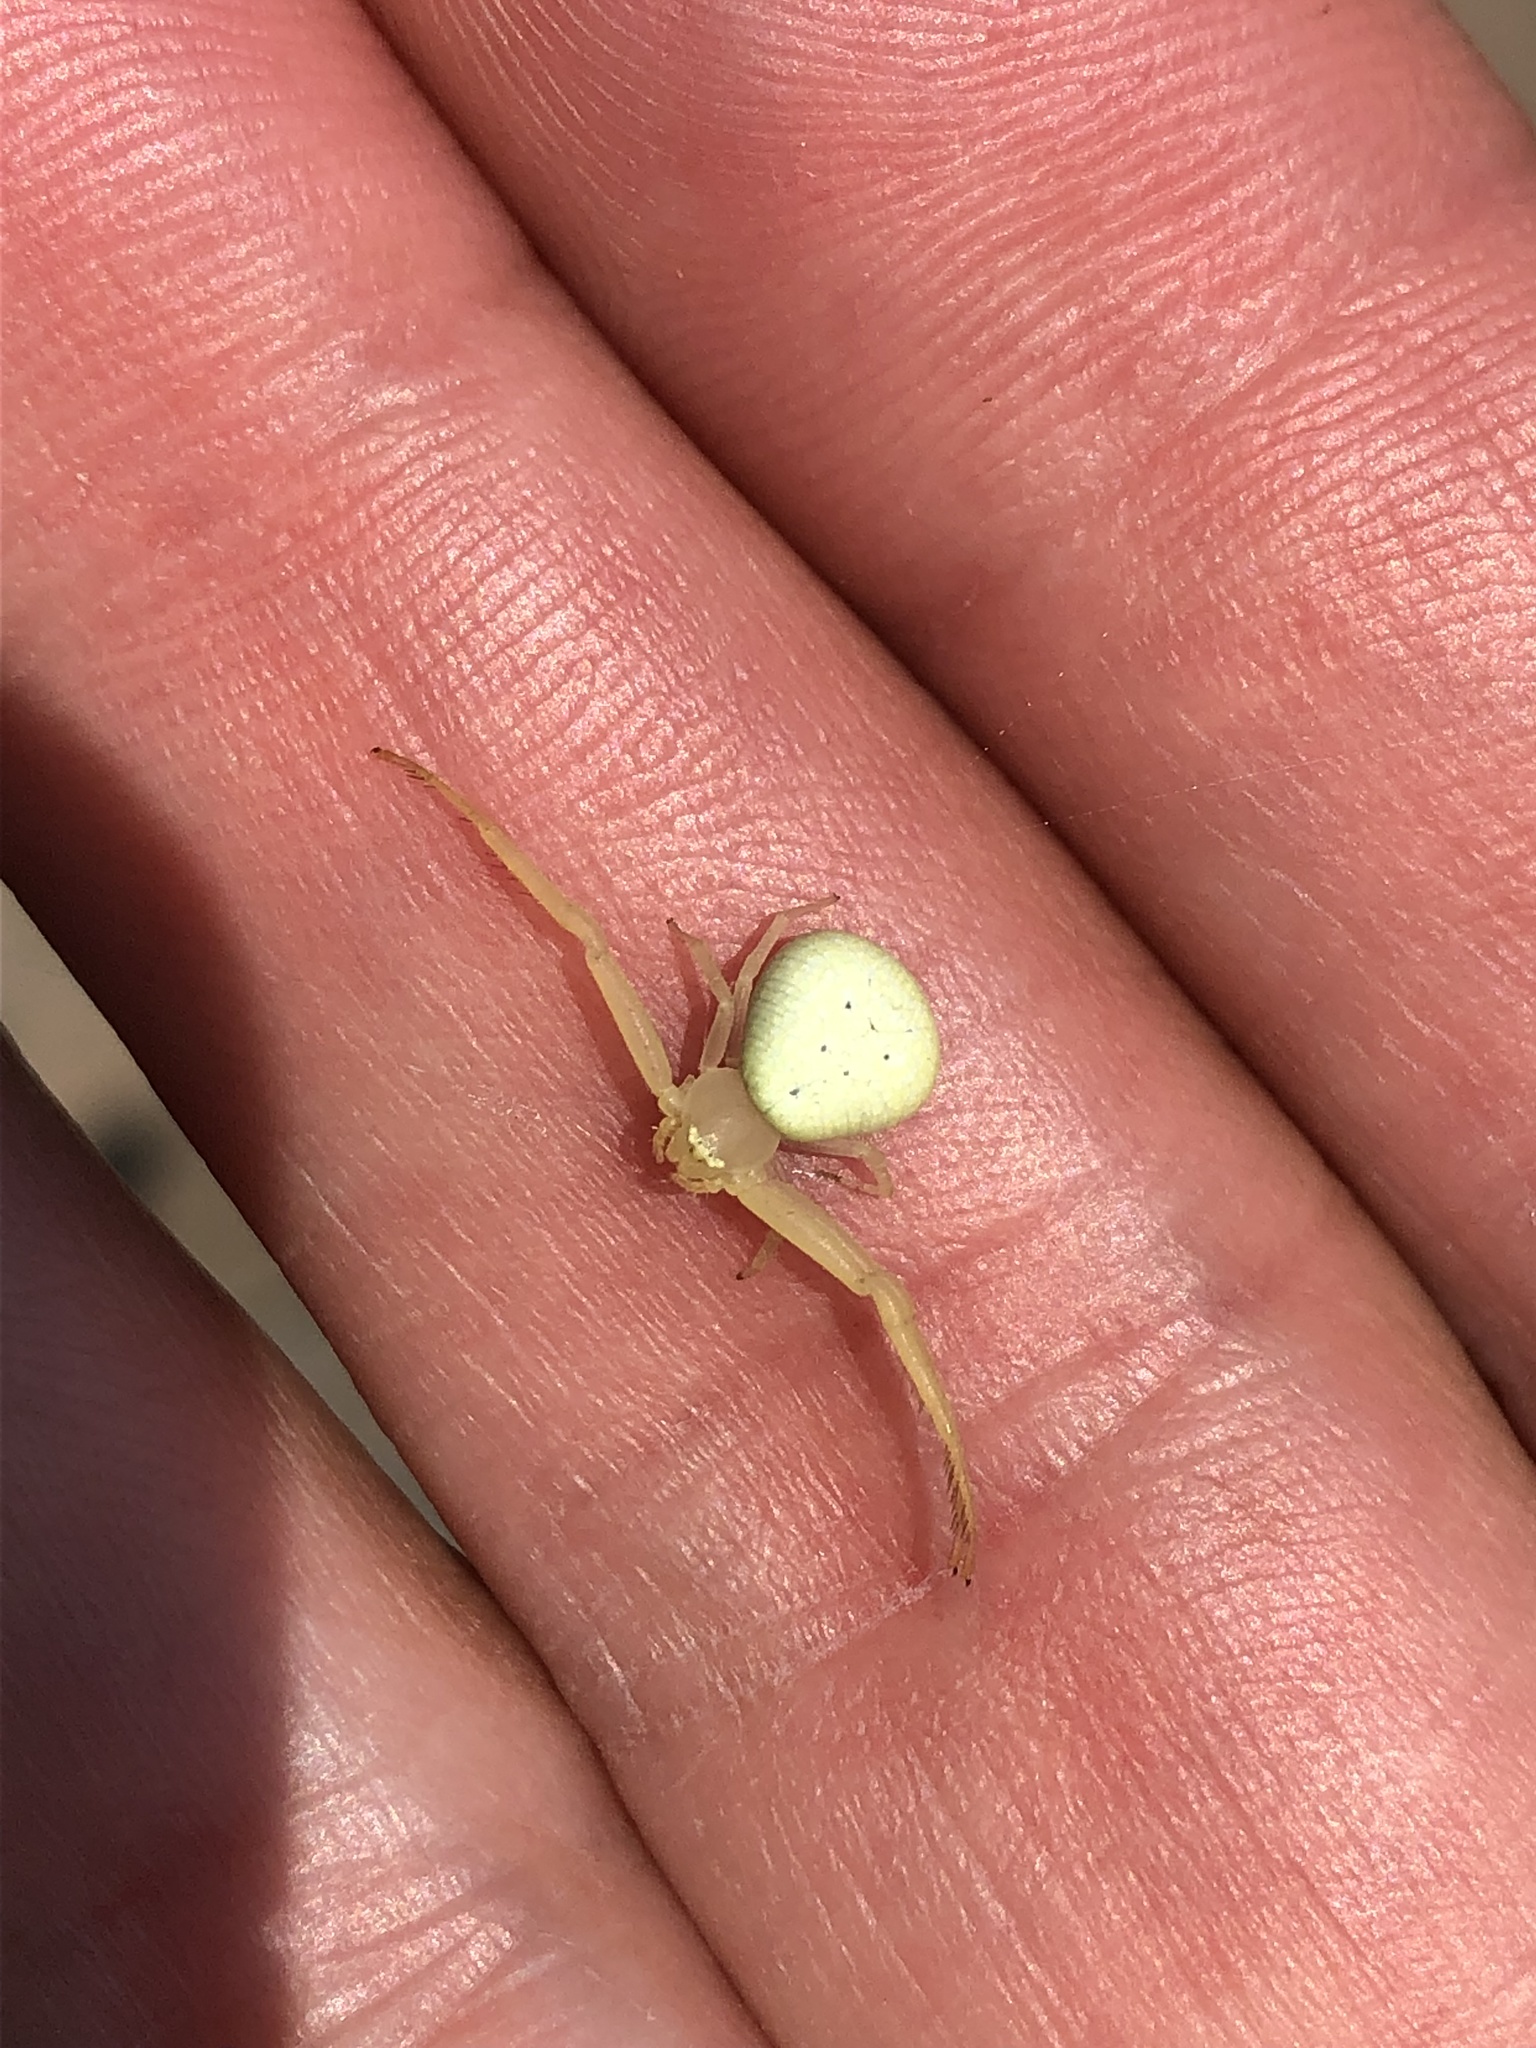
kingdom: Animalia
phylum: Arthropoda
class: Arachnida
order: Araneae
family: Thomisidae
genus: Misumessus
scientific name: Misumessus oblongus
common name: American green crab spider
